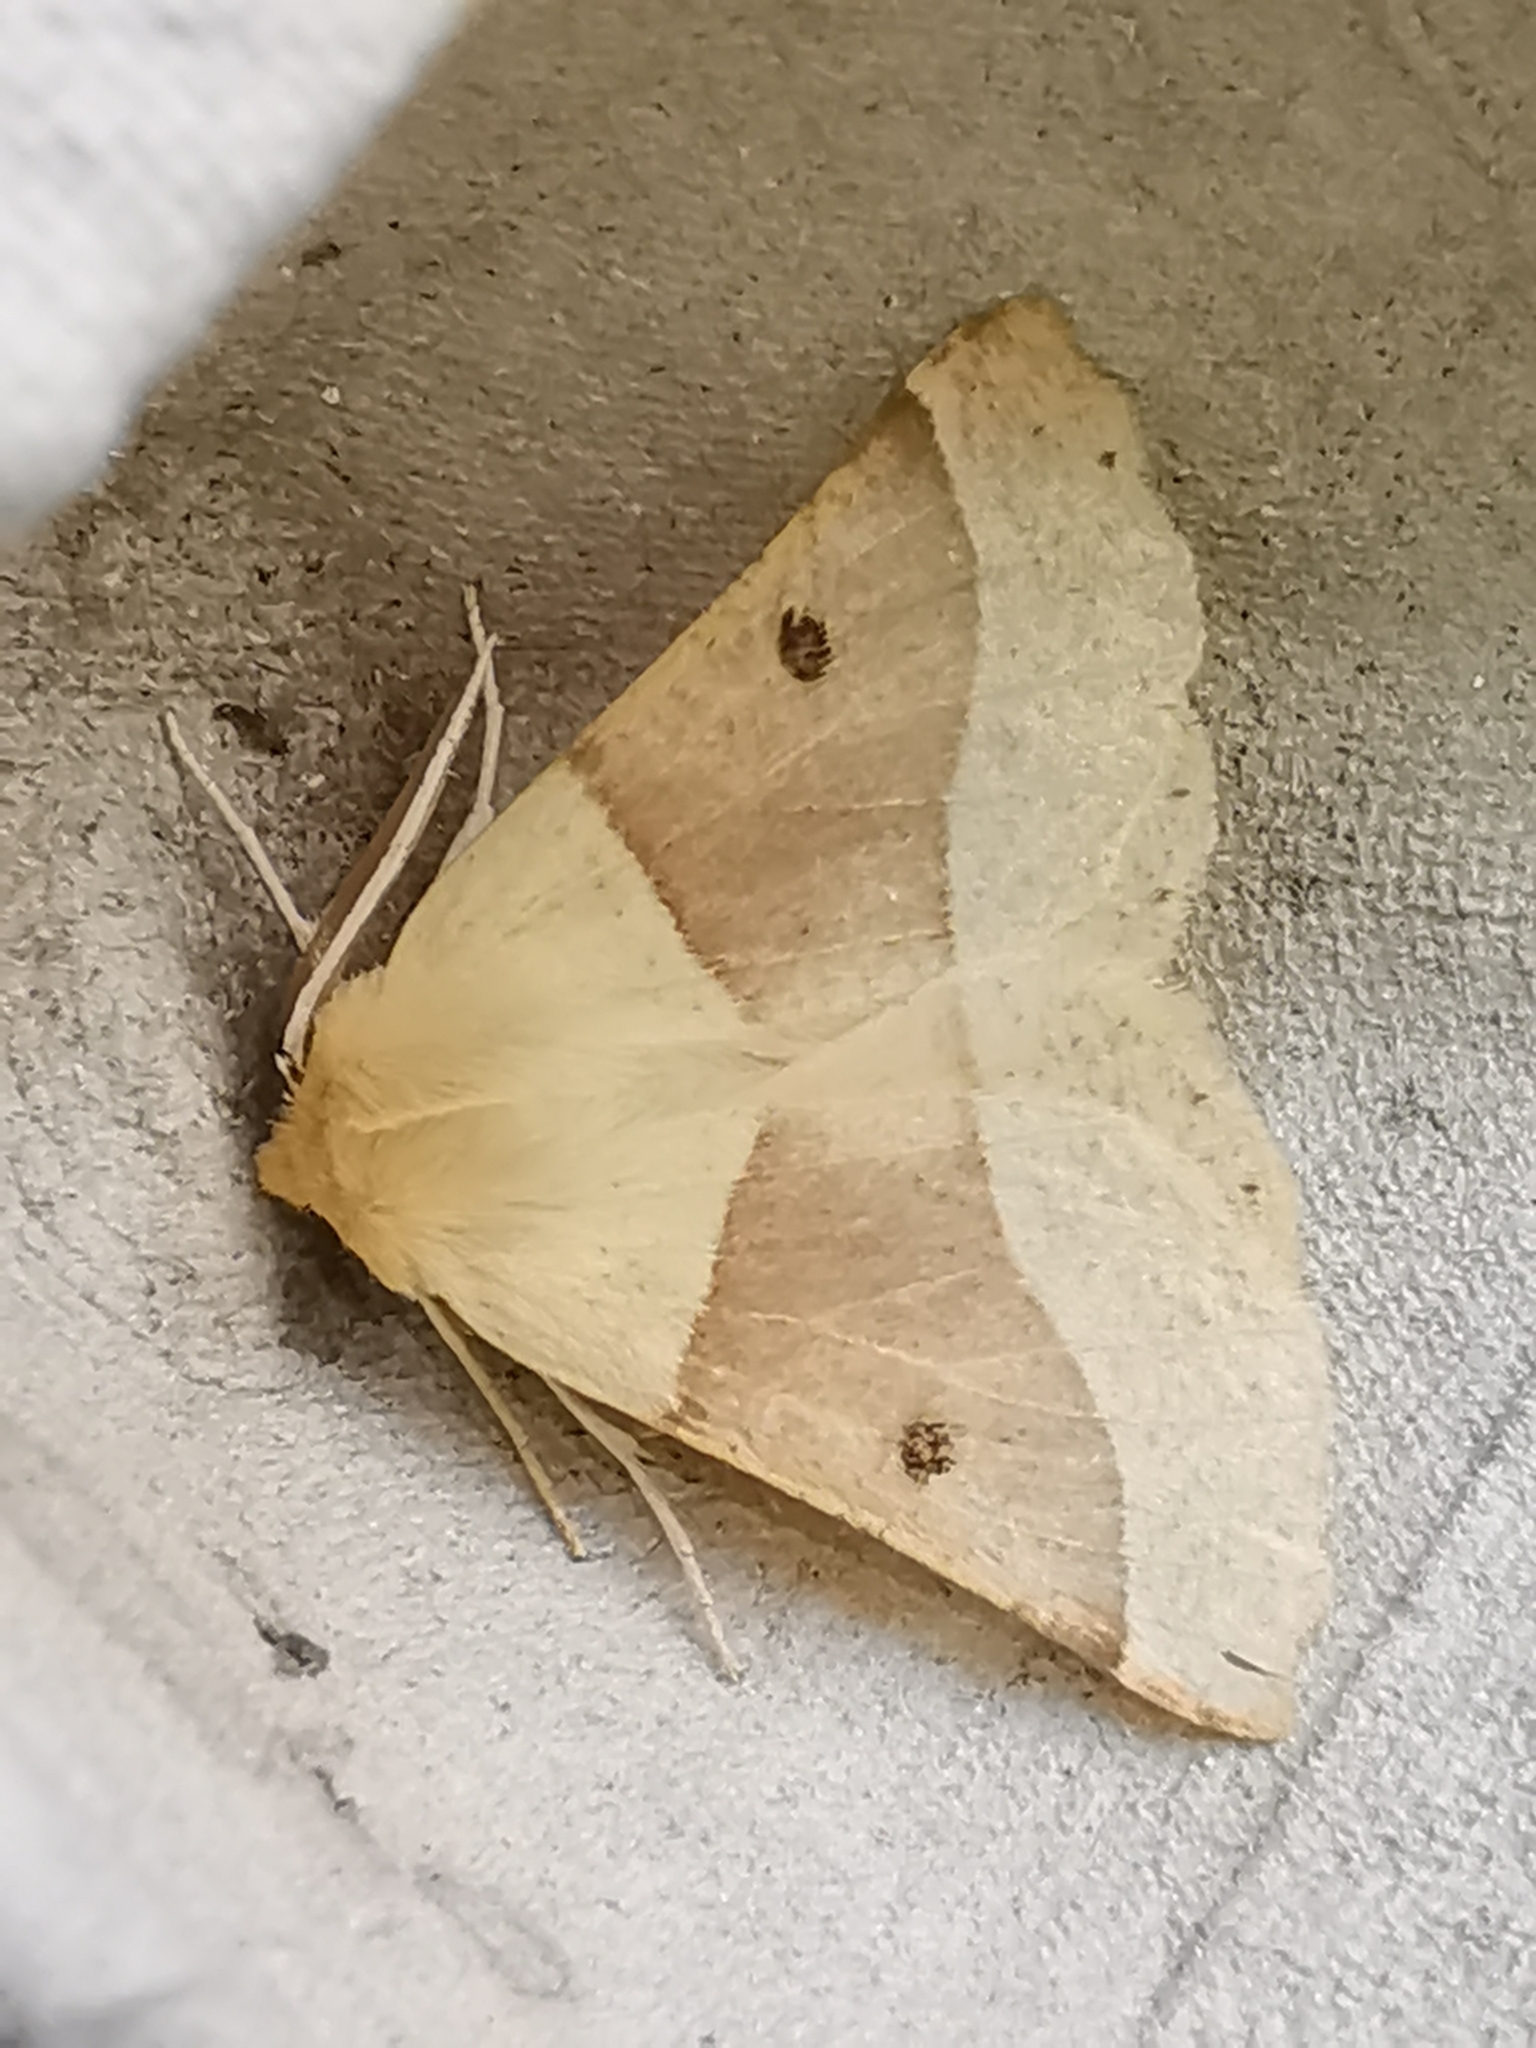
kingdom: Animalia
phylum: Arthropoda
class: Insecta
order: Lepidoptera
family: Geometridae
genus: Crocallis
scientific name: Crocallis elinguaria
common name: Scalloped oak
